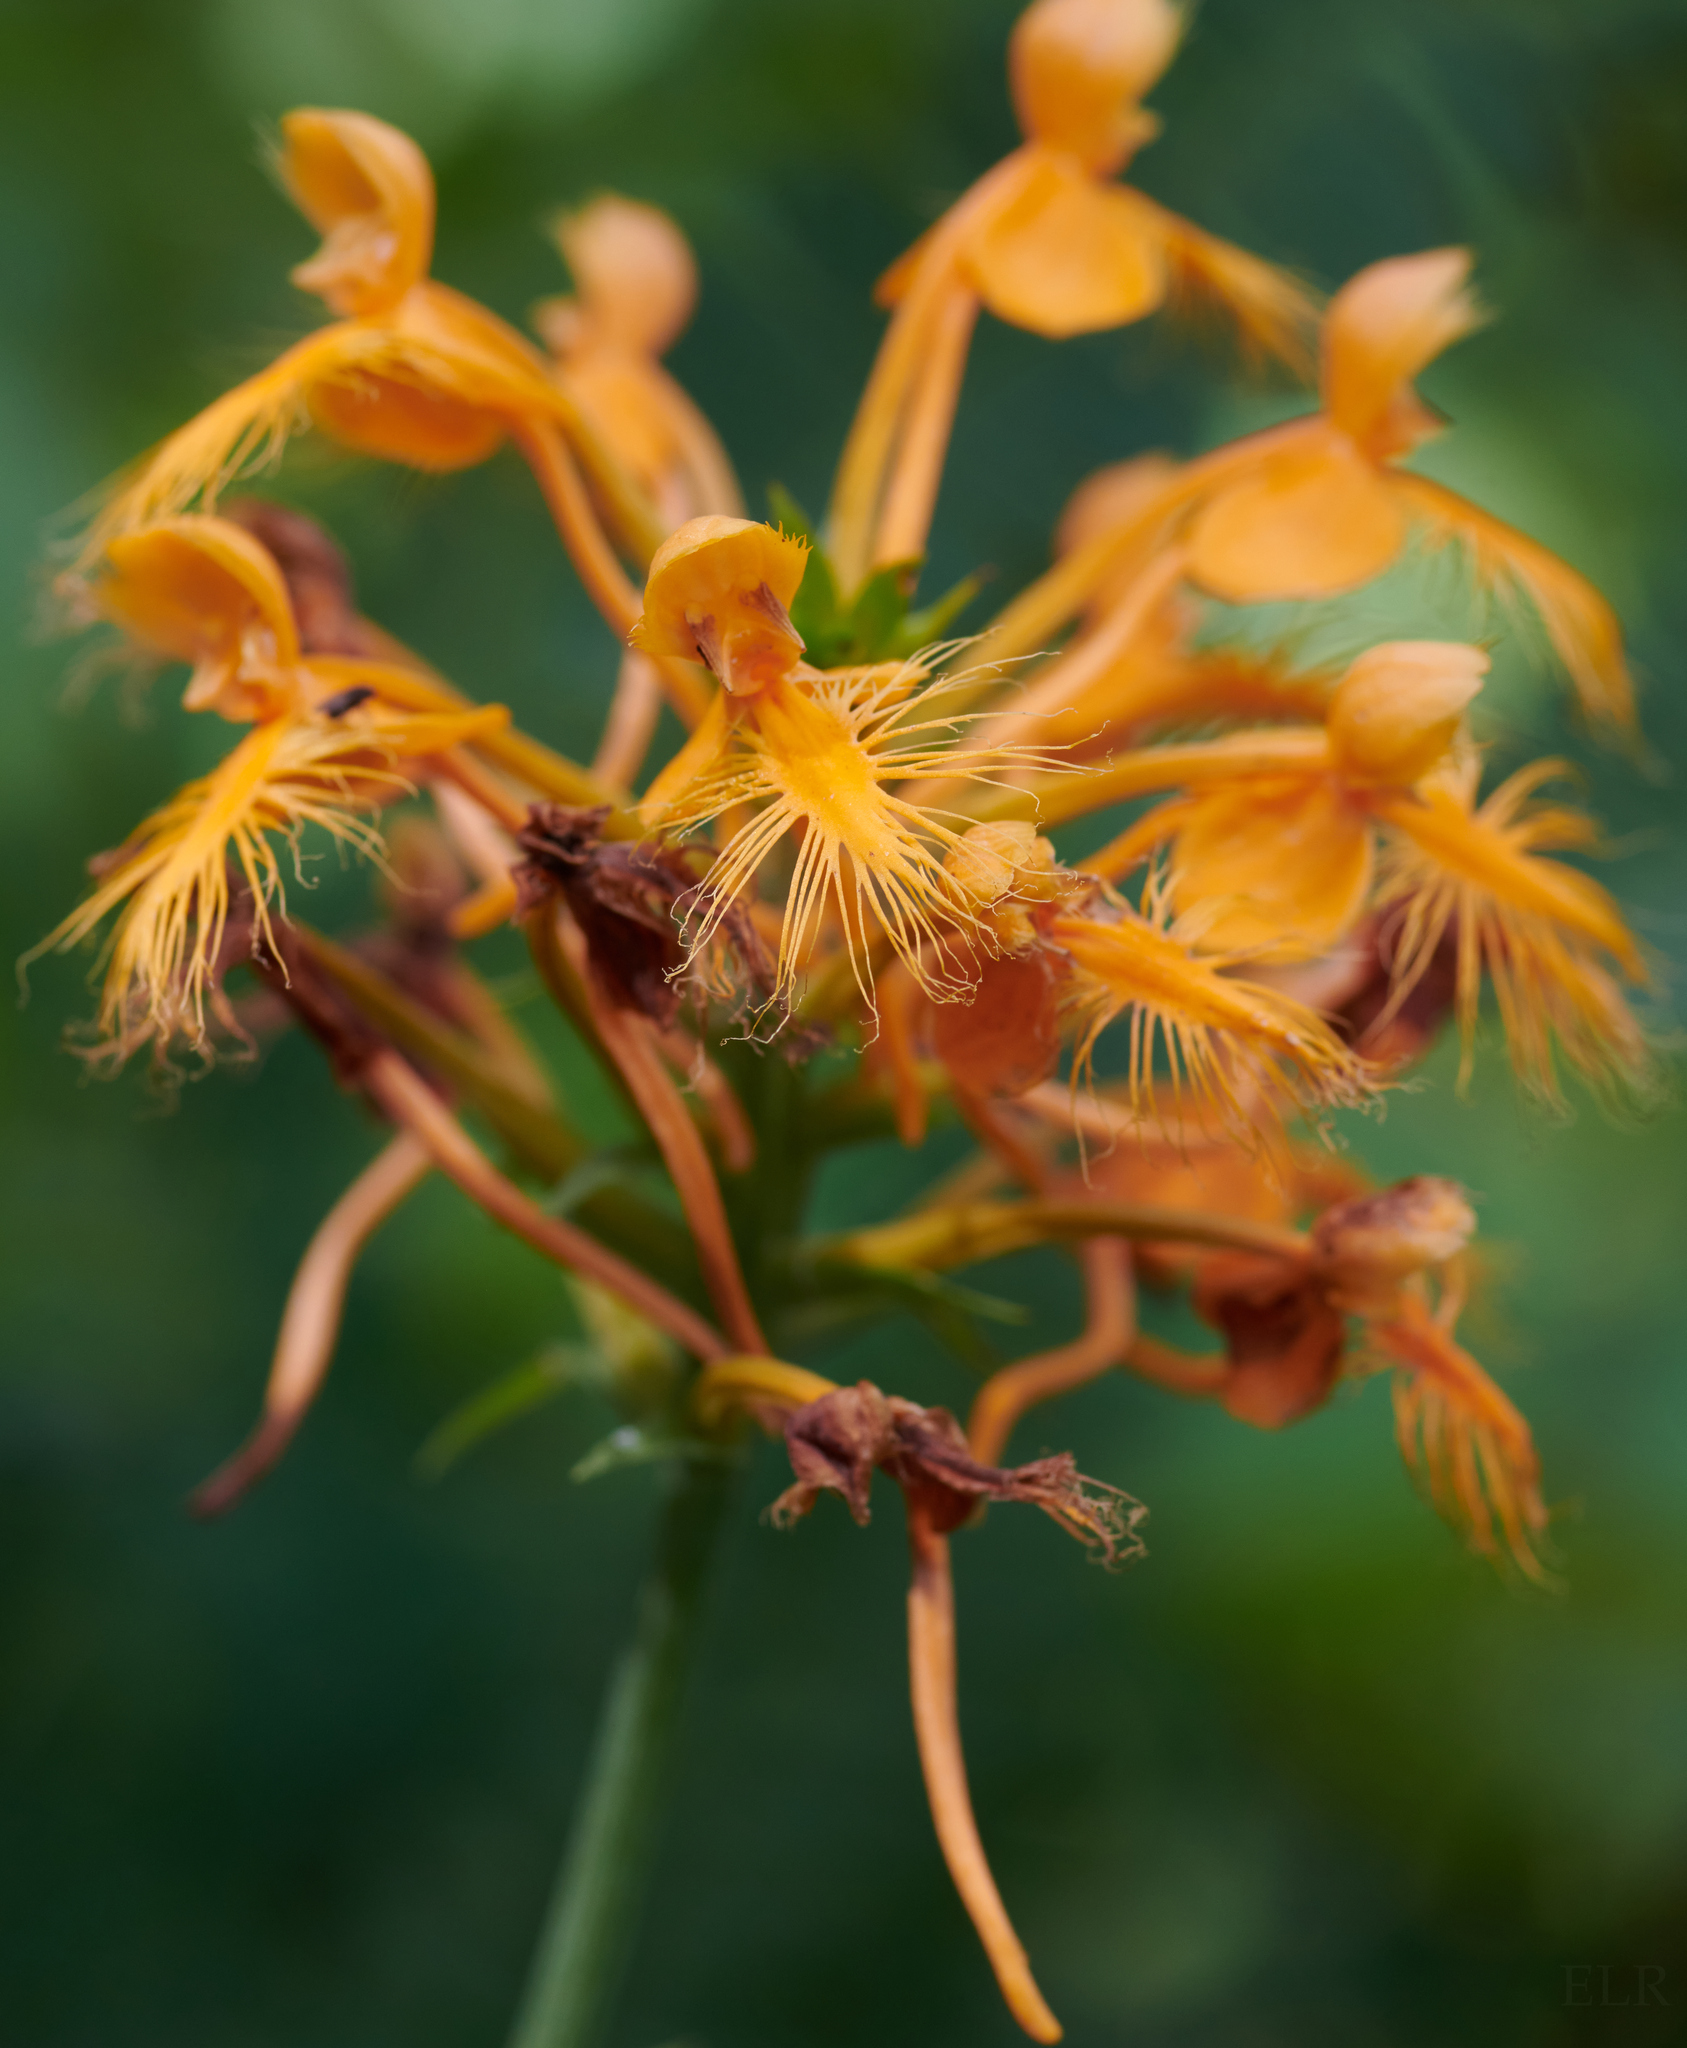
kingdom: Plantae
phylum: Tracheophyta
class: Liliopsida
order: Asparagales
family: Orchidaceae
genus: Platanthera
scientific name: Platanthera ciliaris
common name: Yellow fringed orchid
